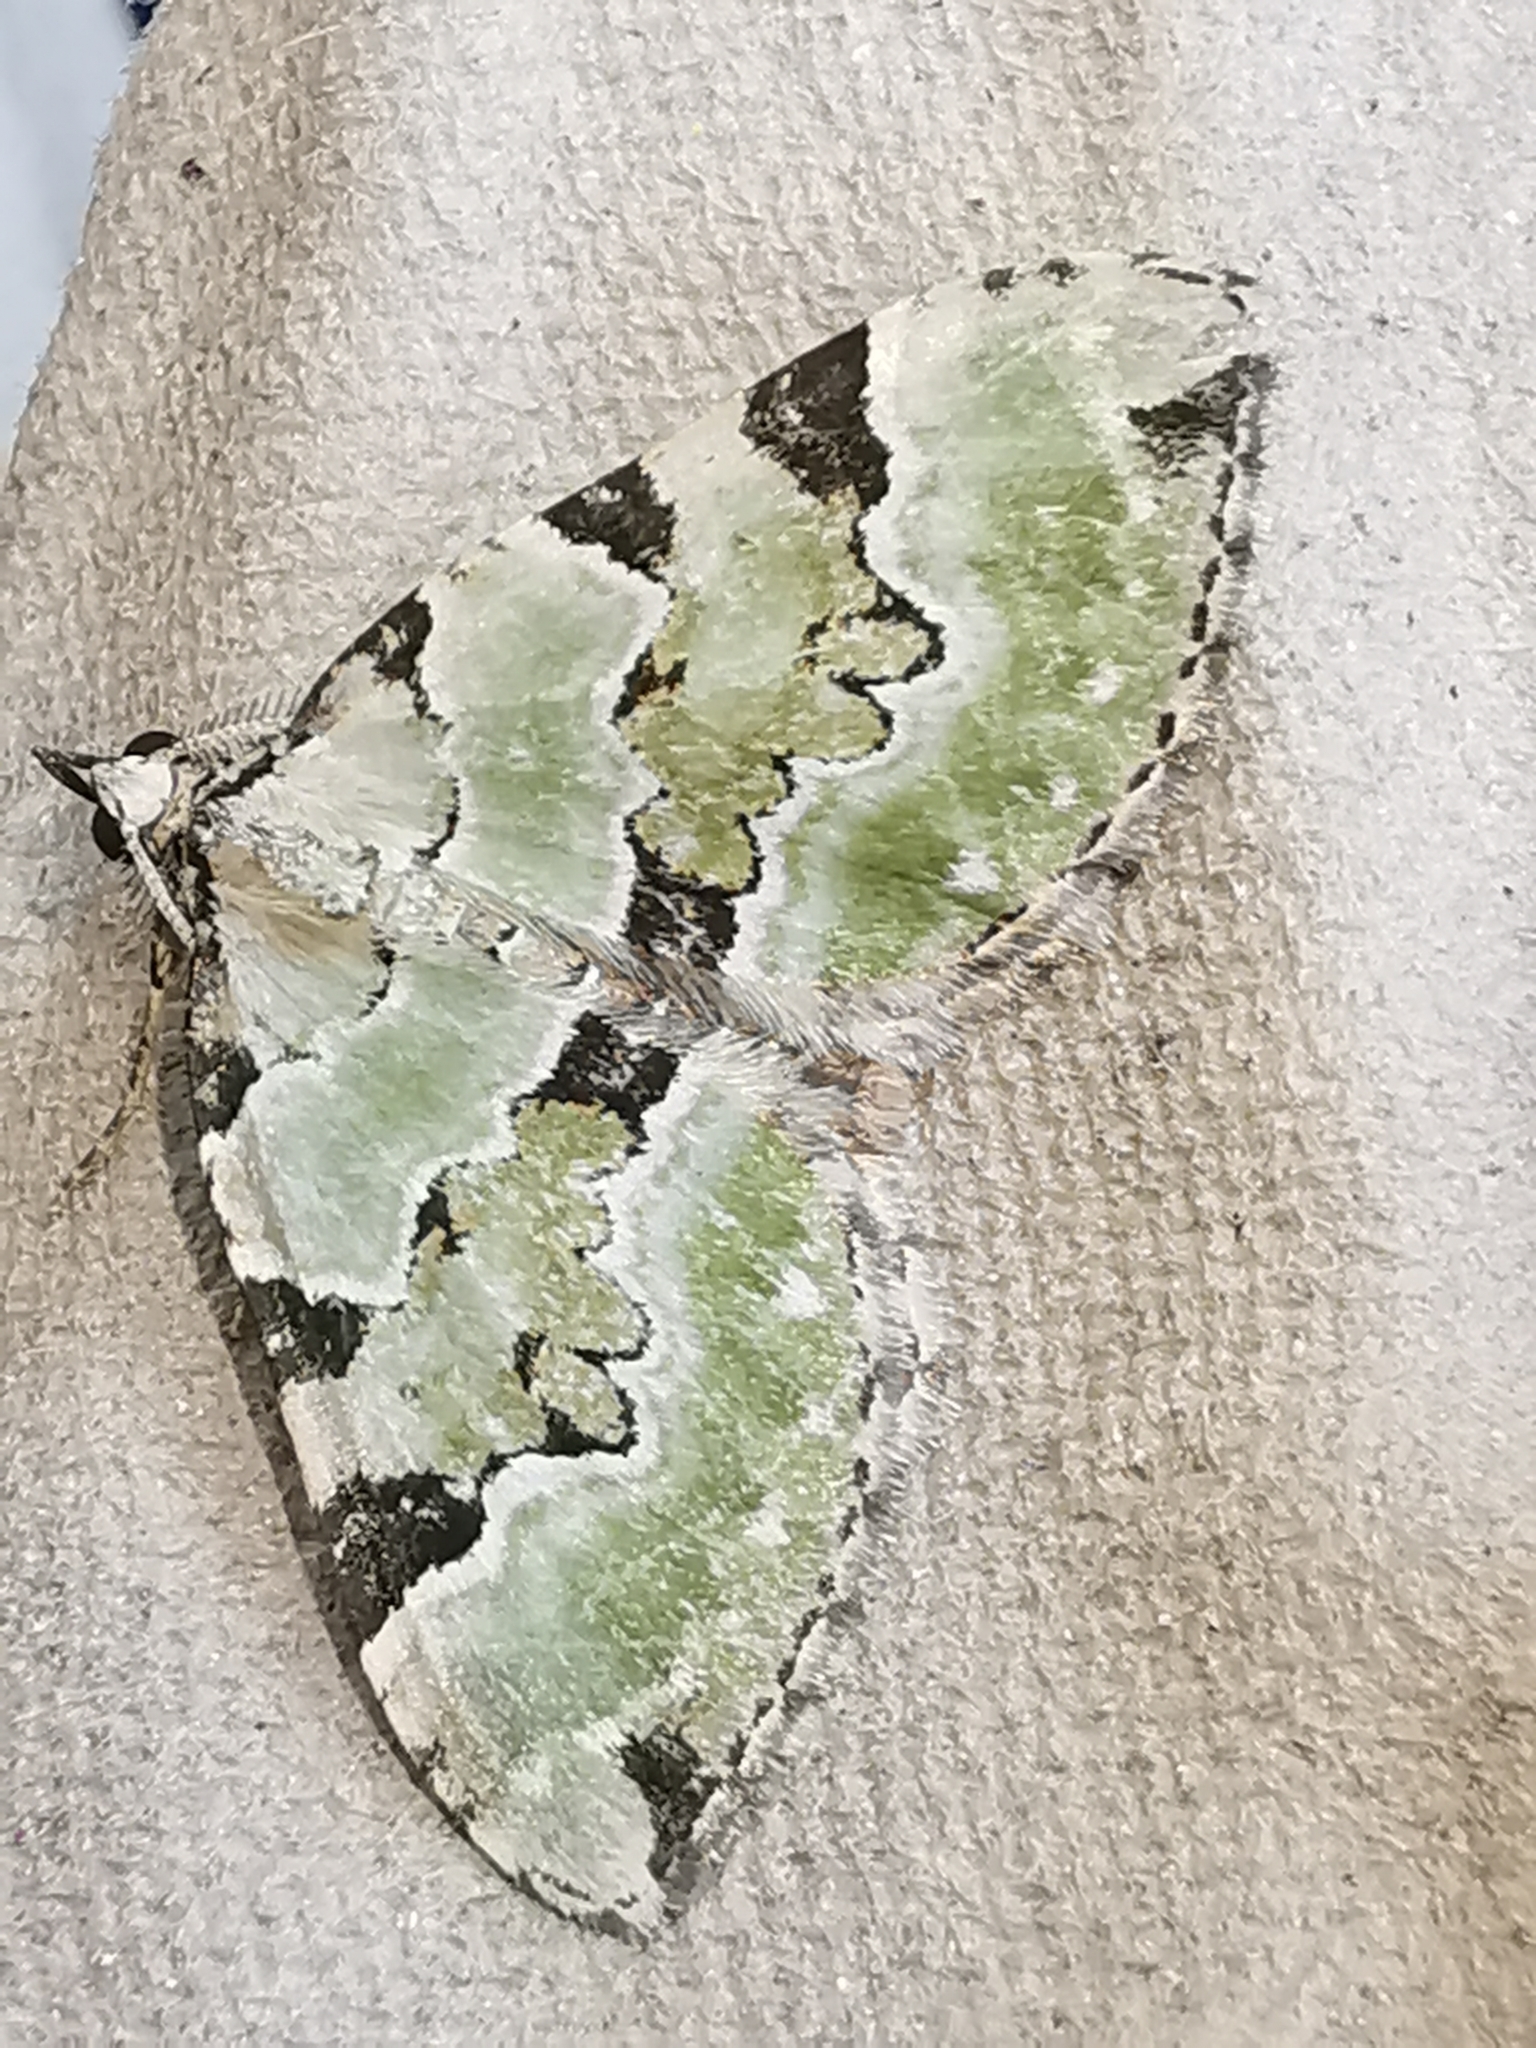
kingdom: Animalia
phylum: Arthropoda
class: Insecta
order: Lepidoptera
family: Geometridae
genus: Colostygia
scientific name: Colostygia pectinataria
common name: Green carpet
